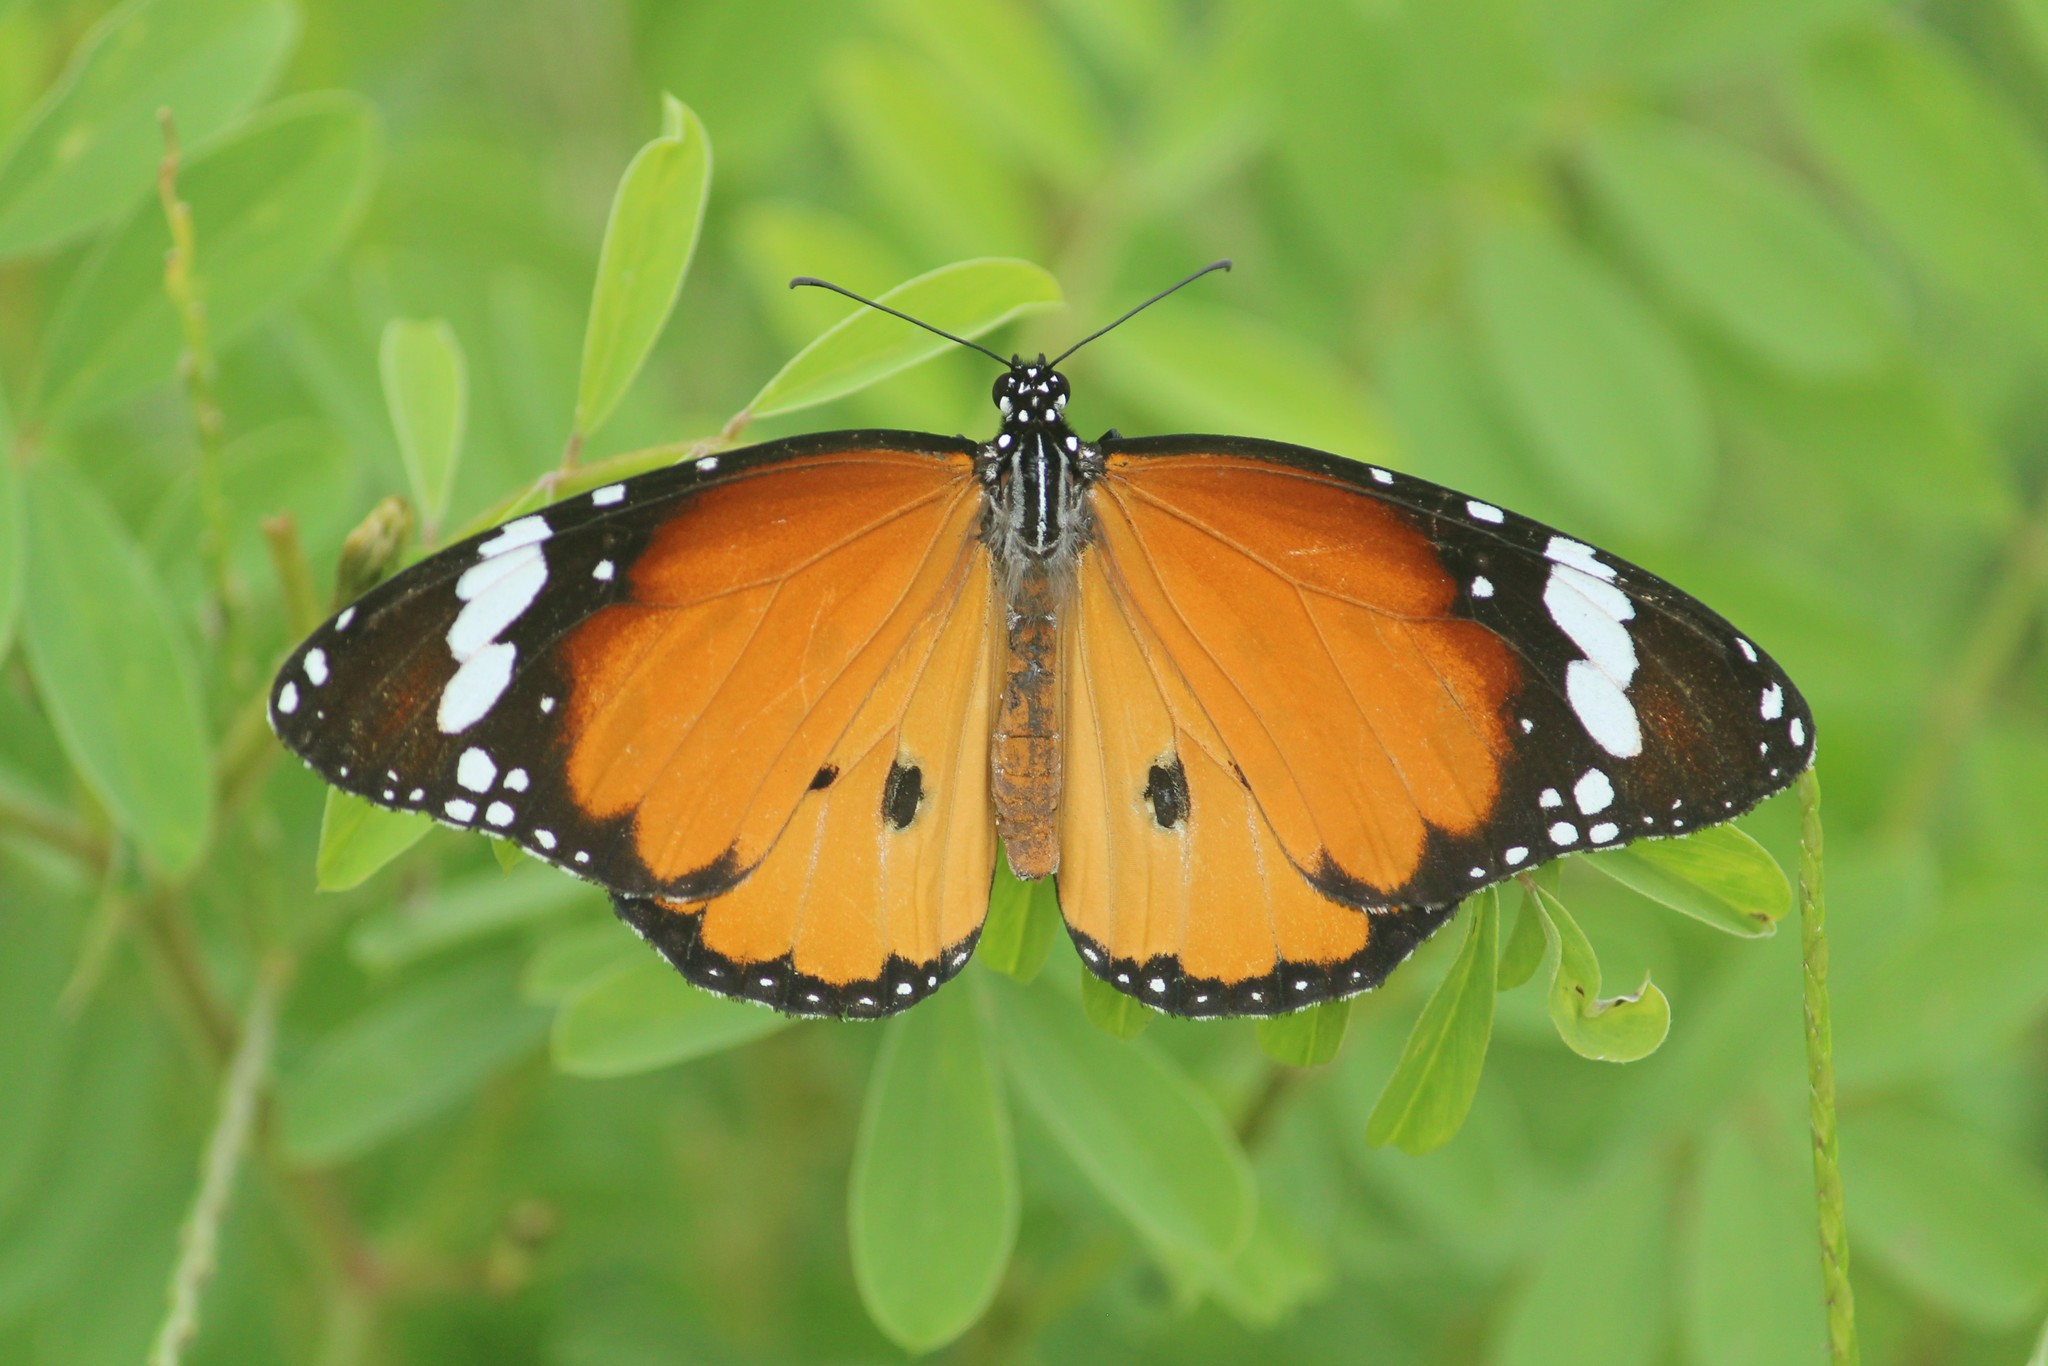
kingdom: Animalia
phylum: Arthropoda
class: Insecta
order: Lepidoptera
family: Nymphalidae
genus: Danaus
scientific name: Danaus chrysippus
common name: Plain tiger
